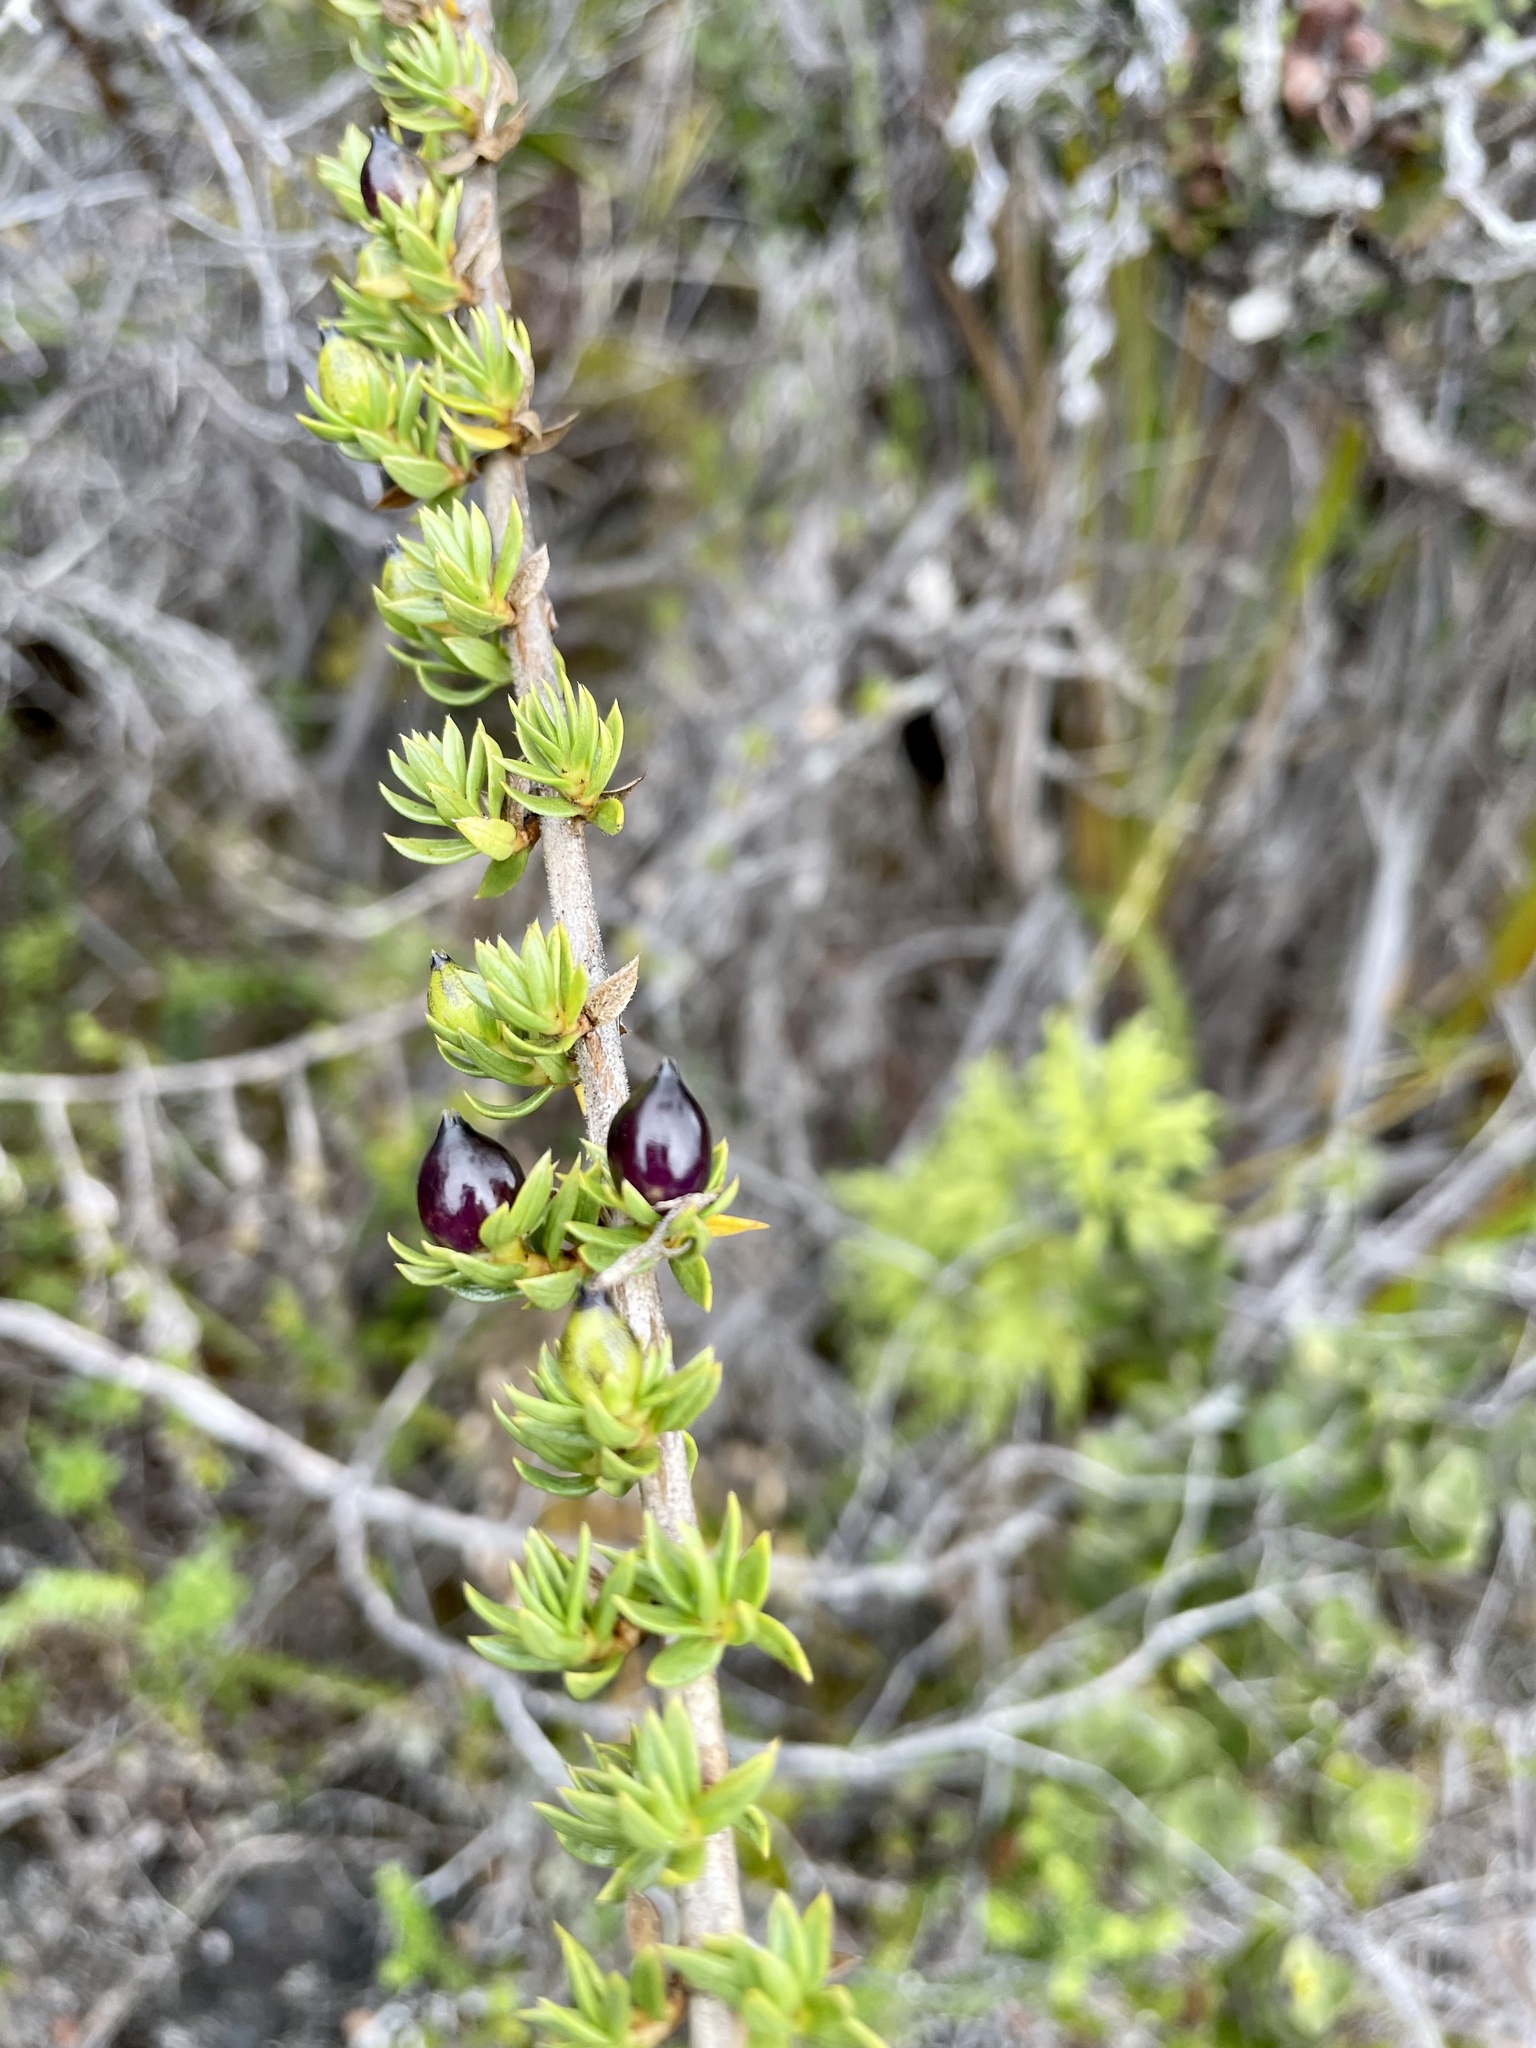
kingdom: Plantae
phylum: Tracheophyta
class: Magnoliopsida
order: Gentianales
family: Rubiaceae
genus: Coprosma
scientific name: Coprosma ernodeoides
